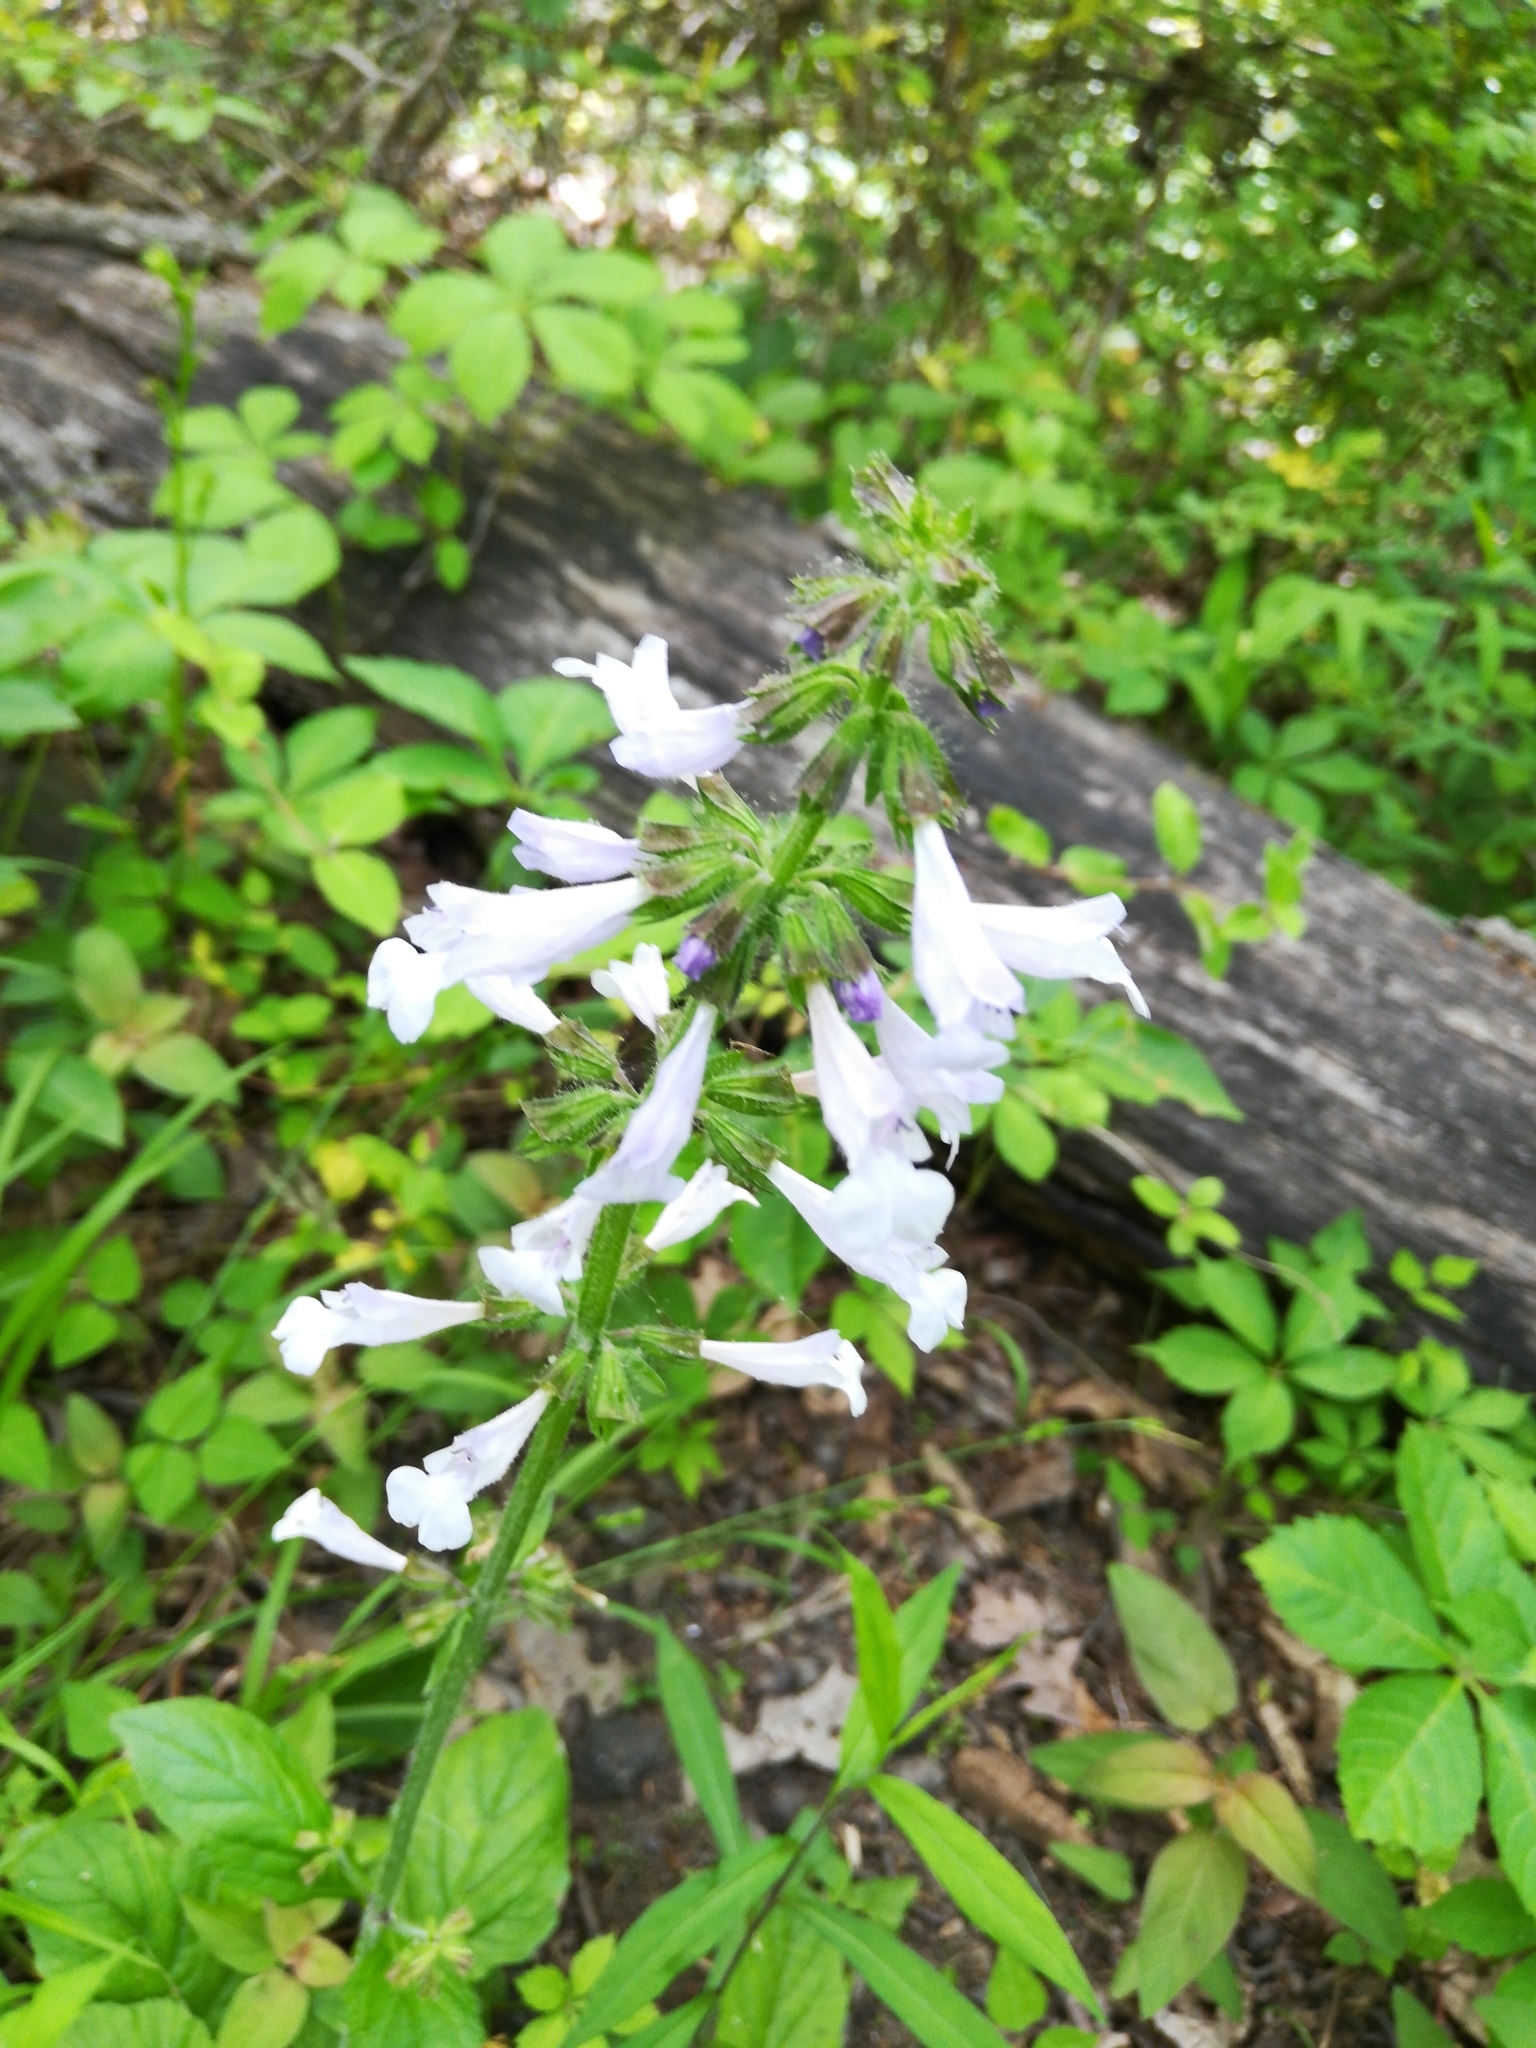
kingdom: Plantae
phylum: Tracheophyta
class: Magnoliopsida
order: Lamiales
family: Lamiaceae
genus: Salvia
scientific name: Salvia lyrata
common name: Cancerweed
